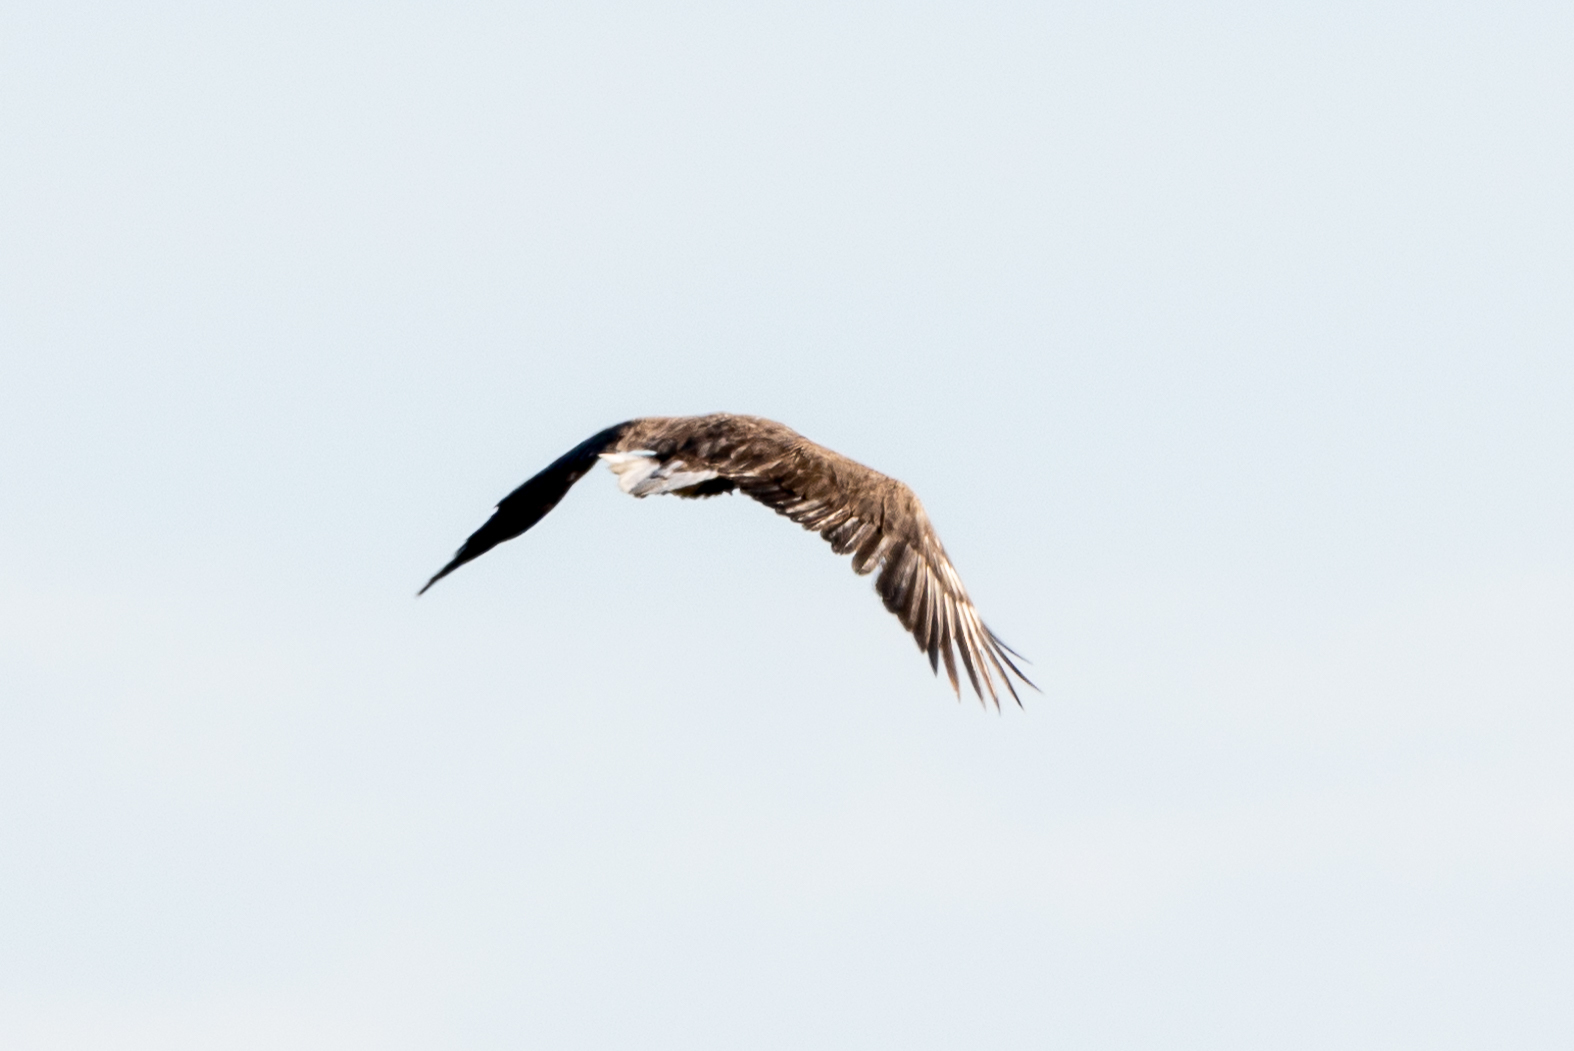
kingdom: Animalia
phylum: Chordata
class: Aves
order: Accipitriformes
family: Accipitridae
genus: Haliaeetus
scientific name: Haliaeetus albicilla
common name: White-tailed eagle
